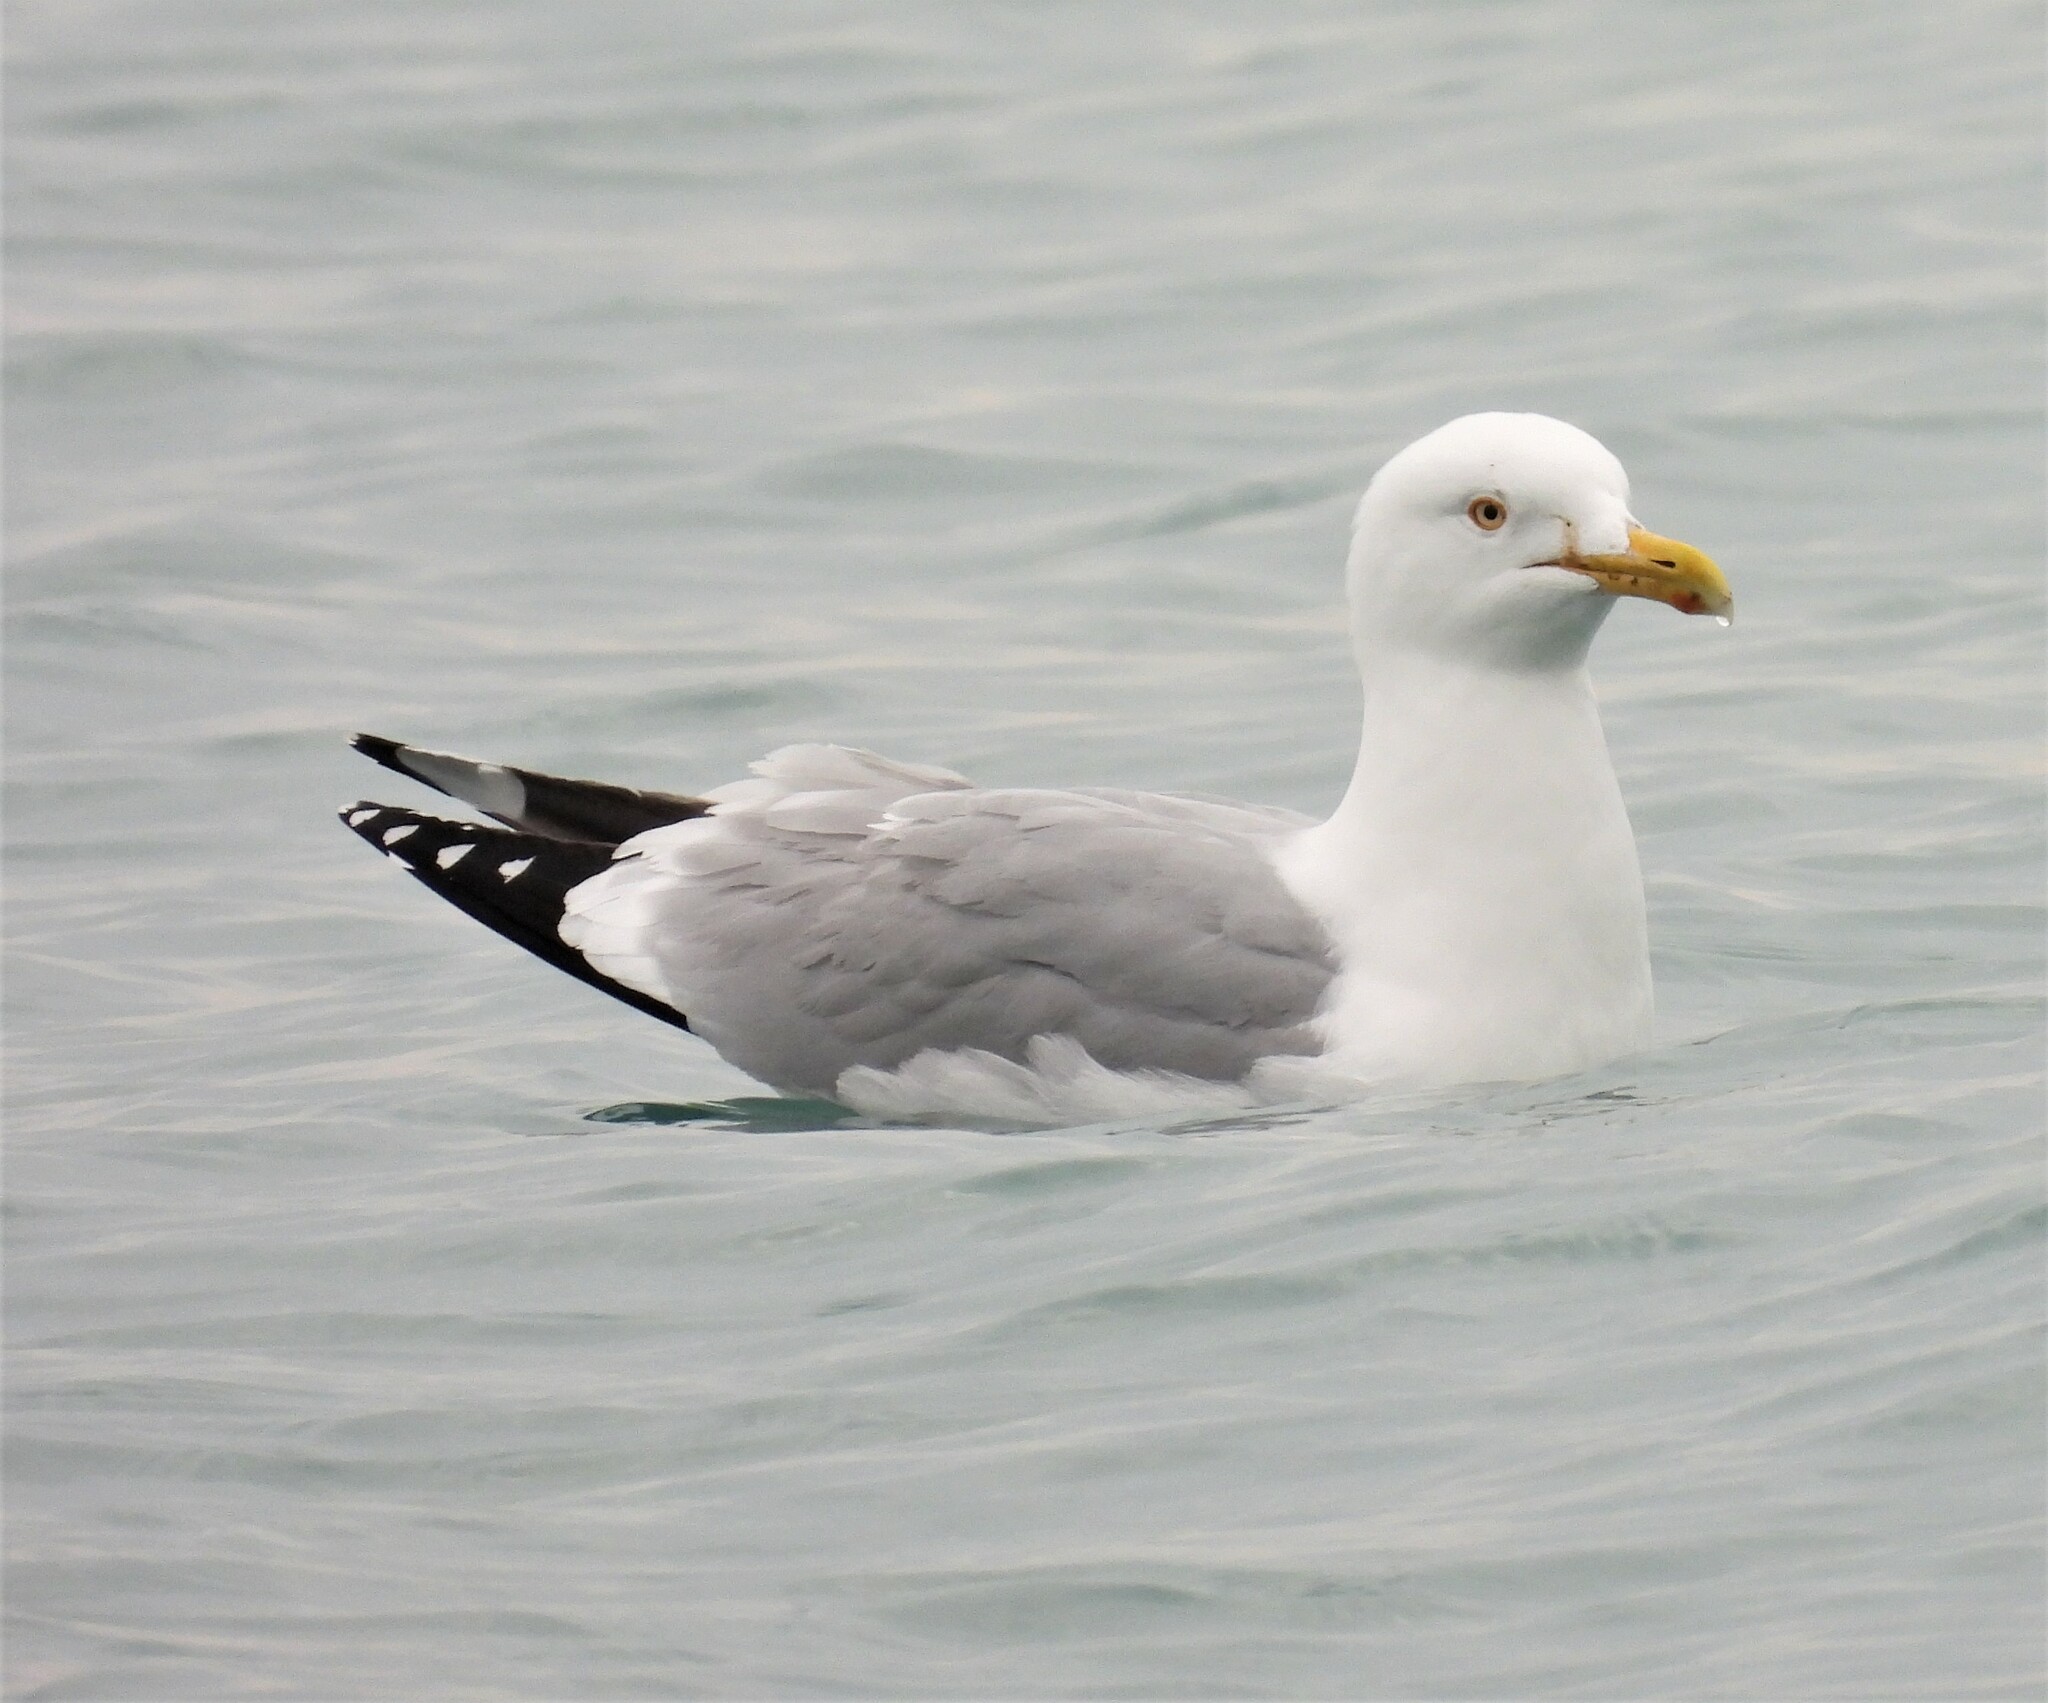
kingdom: Animalia
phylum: Chordata
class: Aves
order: Charadriiformes
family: Laridae
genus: Larus
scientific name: Larus argentatus
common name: Herring gull
